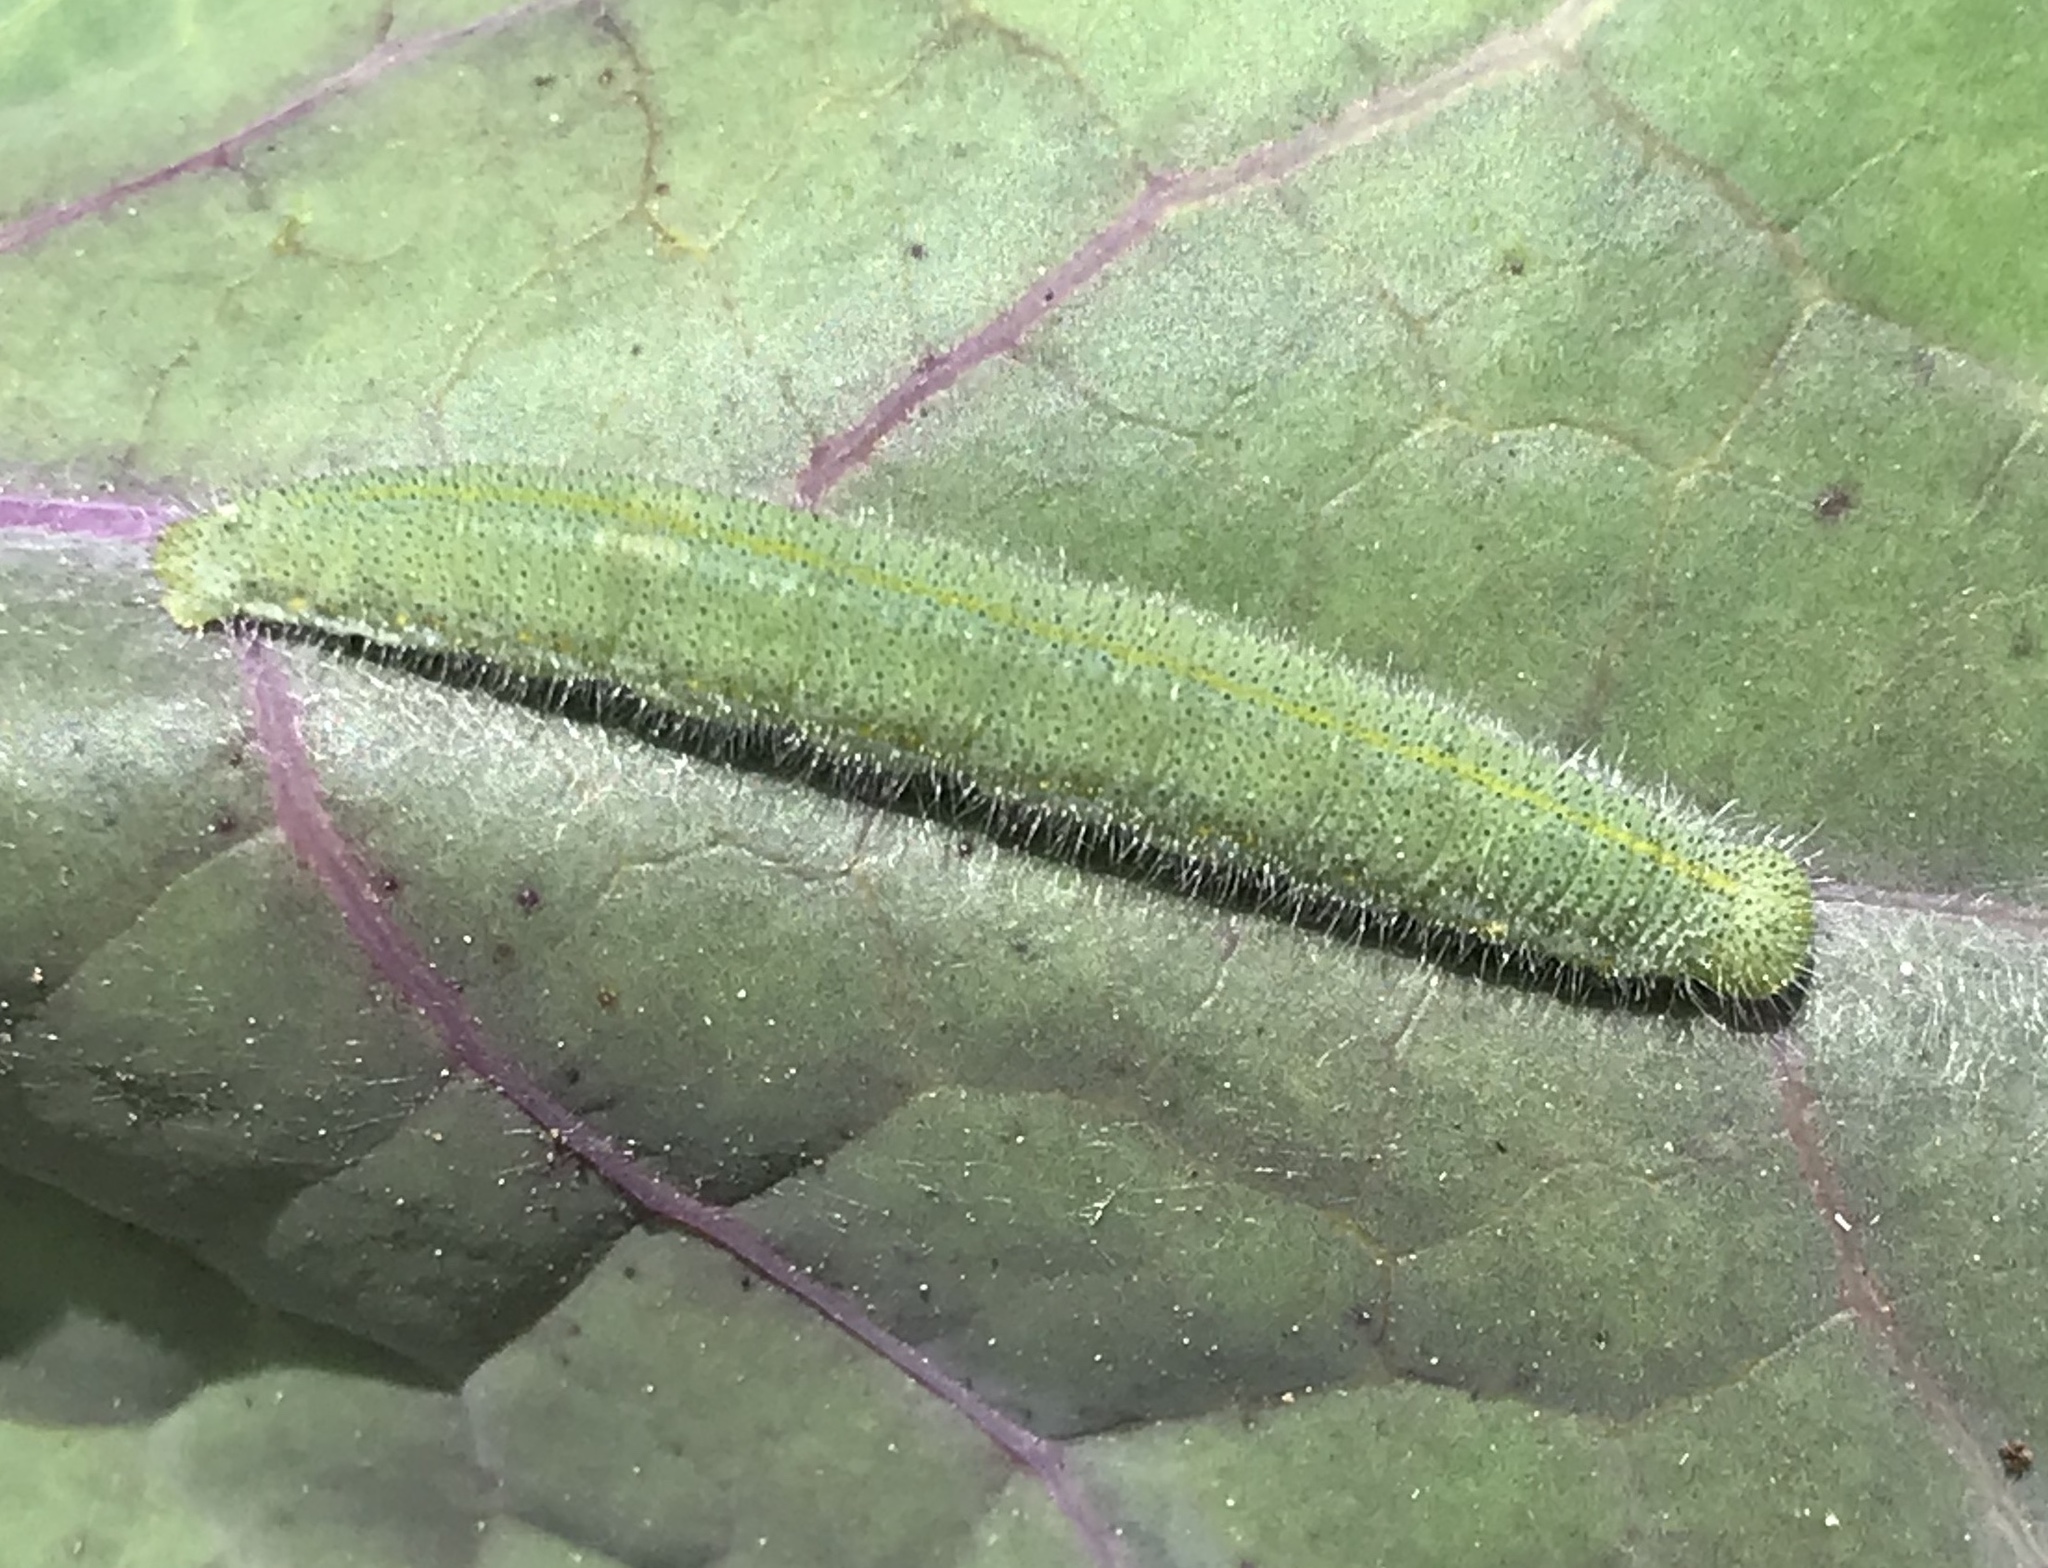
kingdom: Animalia
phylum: Arthropoda
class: Insecta
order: Lepidoptera
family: Pieridae
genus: Pieris
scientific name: Pieris rapae
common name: Small white
